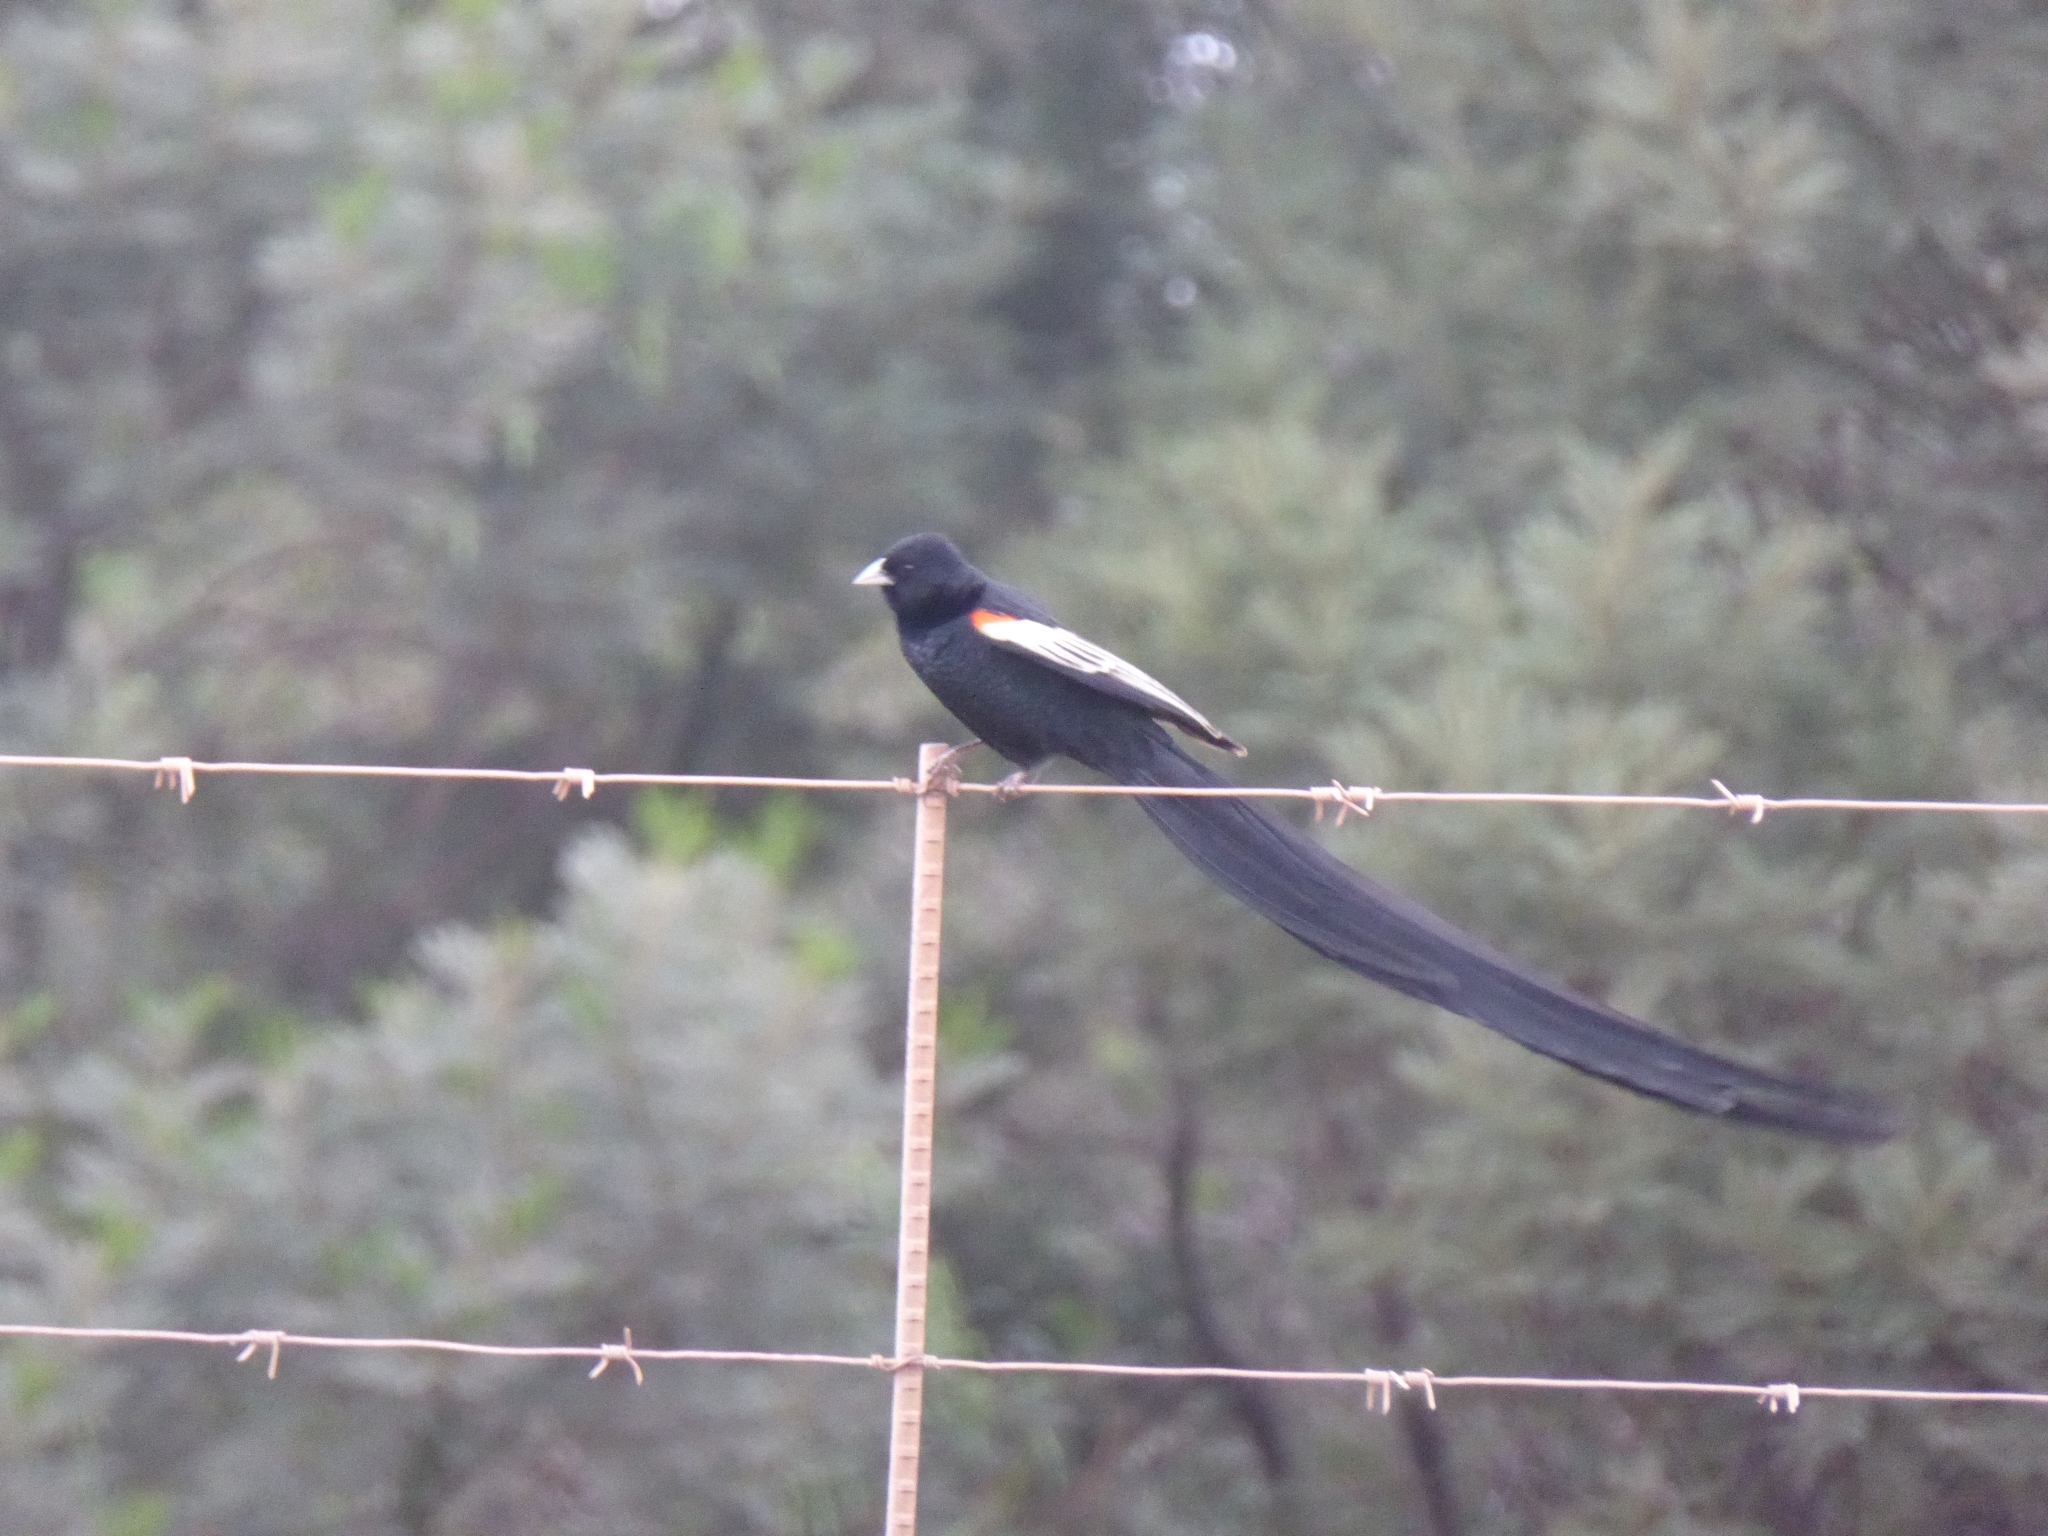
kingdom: Animalia
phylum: Chordata
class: Aves
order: Passeriformes
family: Ploceidae
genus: Euplectes
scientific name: Euplectes progne
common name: Long-tailed widowbird
